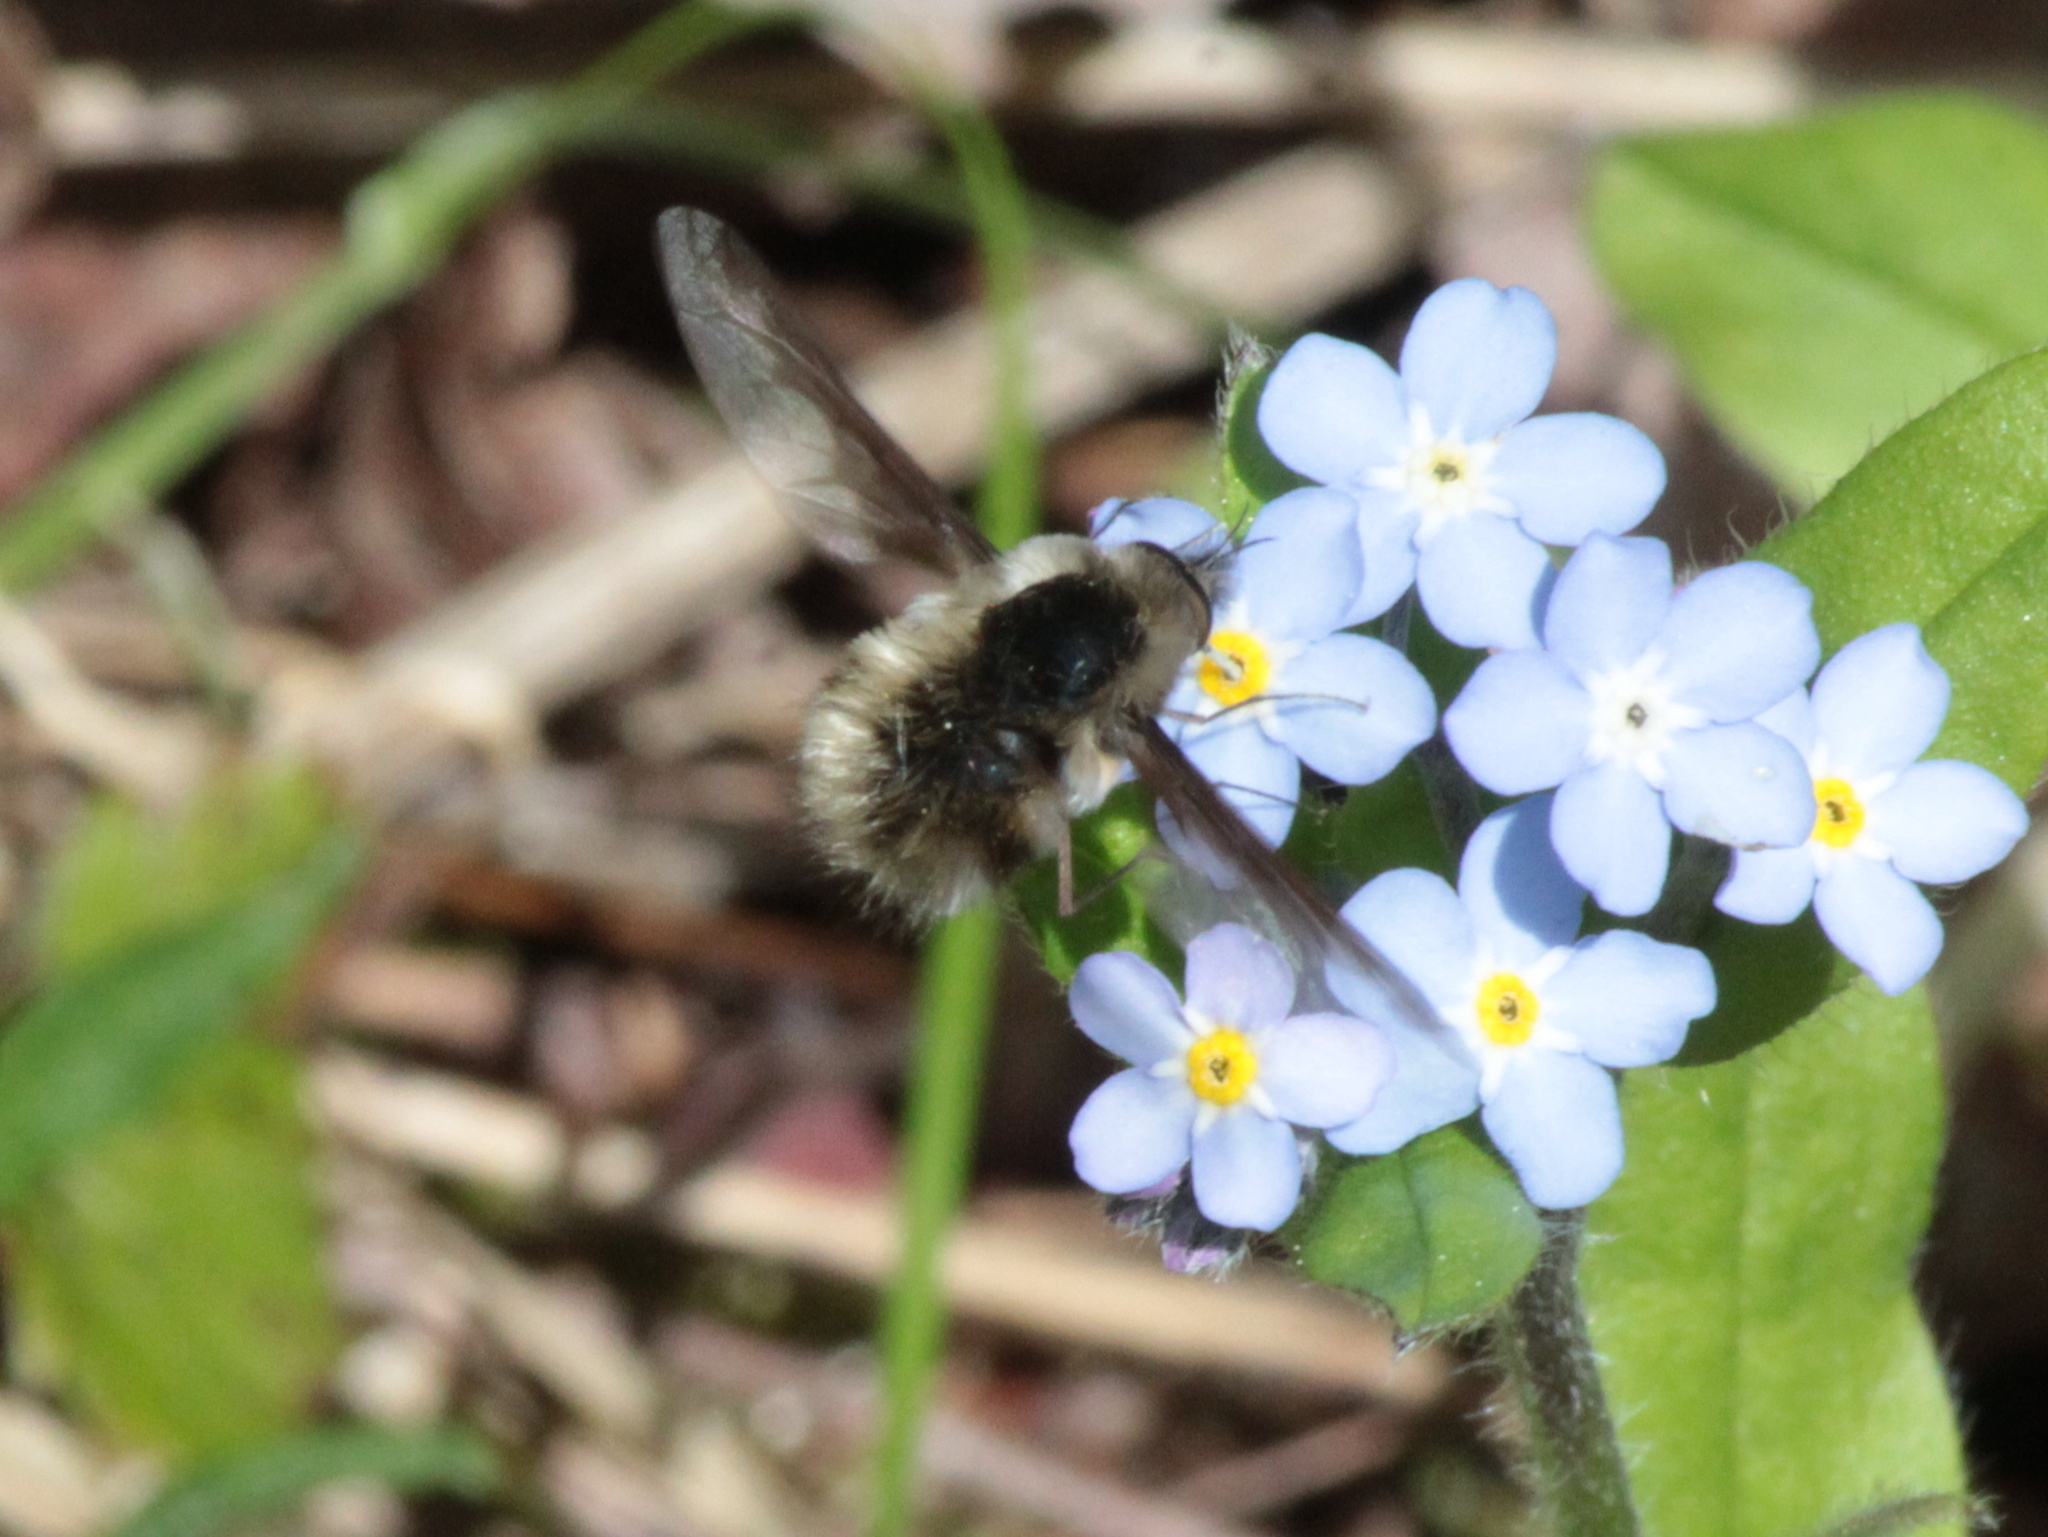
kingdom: Animalia
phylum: Arthropoda
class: Insecta
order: Diptera
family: Bombyliidae
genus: Bombylius
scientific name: Bombylius major
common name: Bee fly
